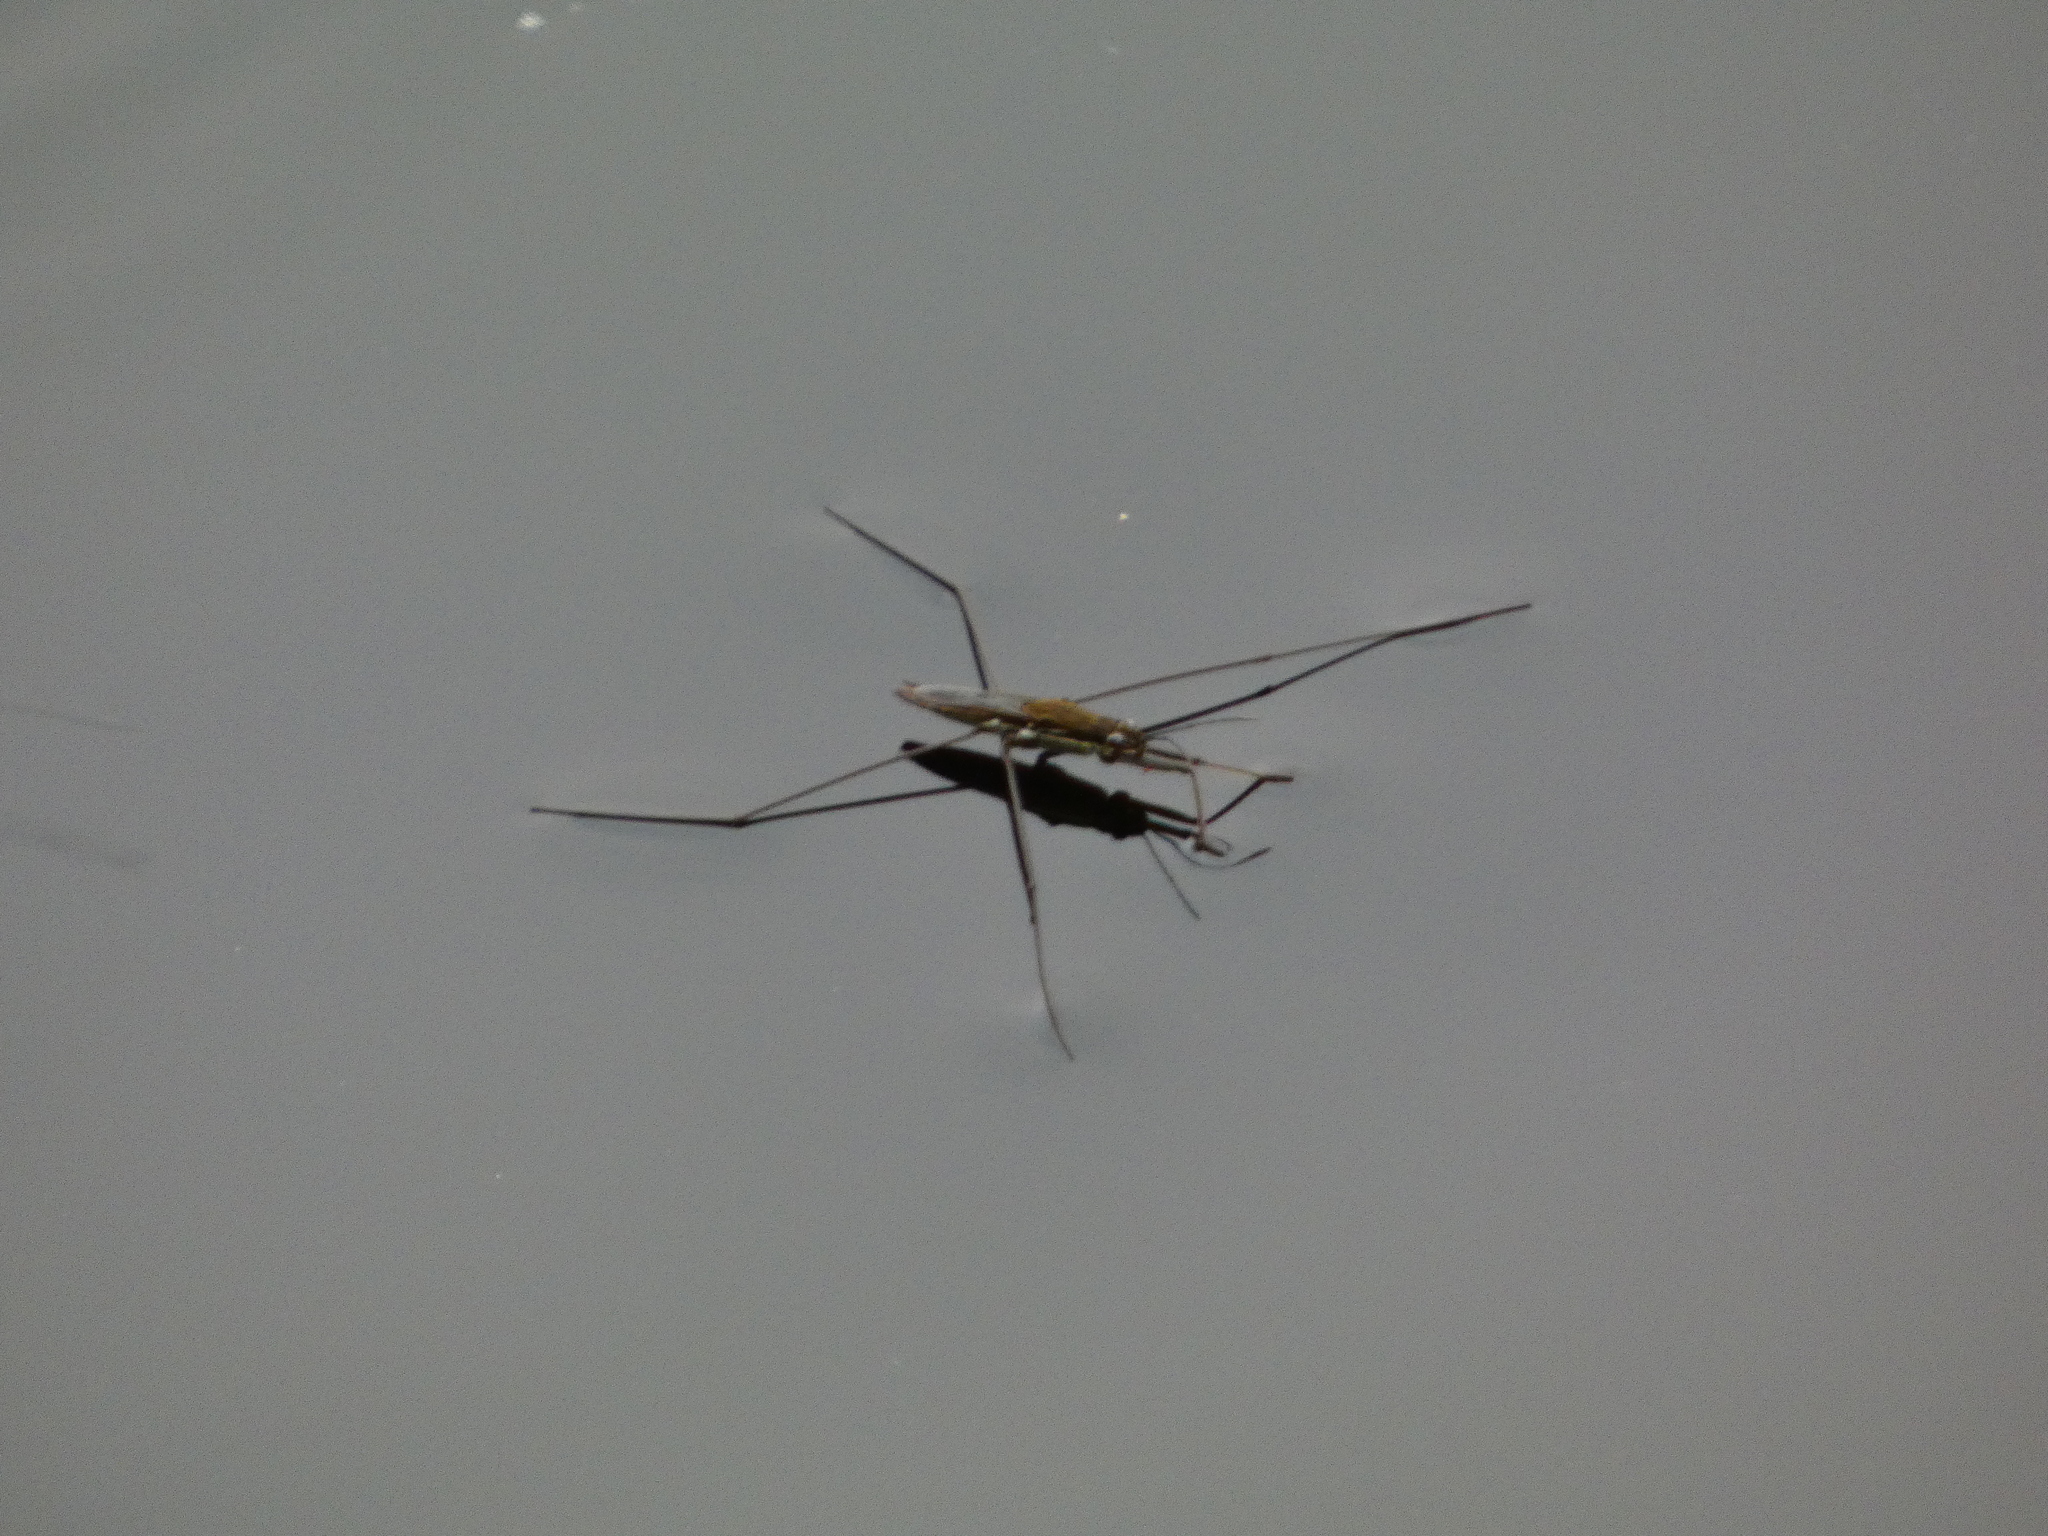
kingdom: Animalia
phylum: Arthropoda
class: Insecta
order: Hemiptera
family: Gerridae
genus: Aquarius
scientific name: Aquarius paludum
